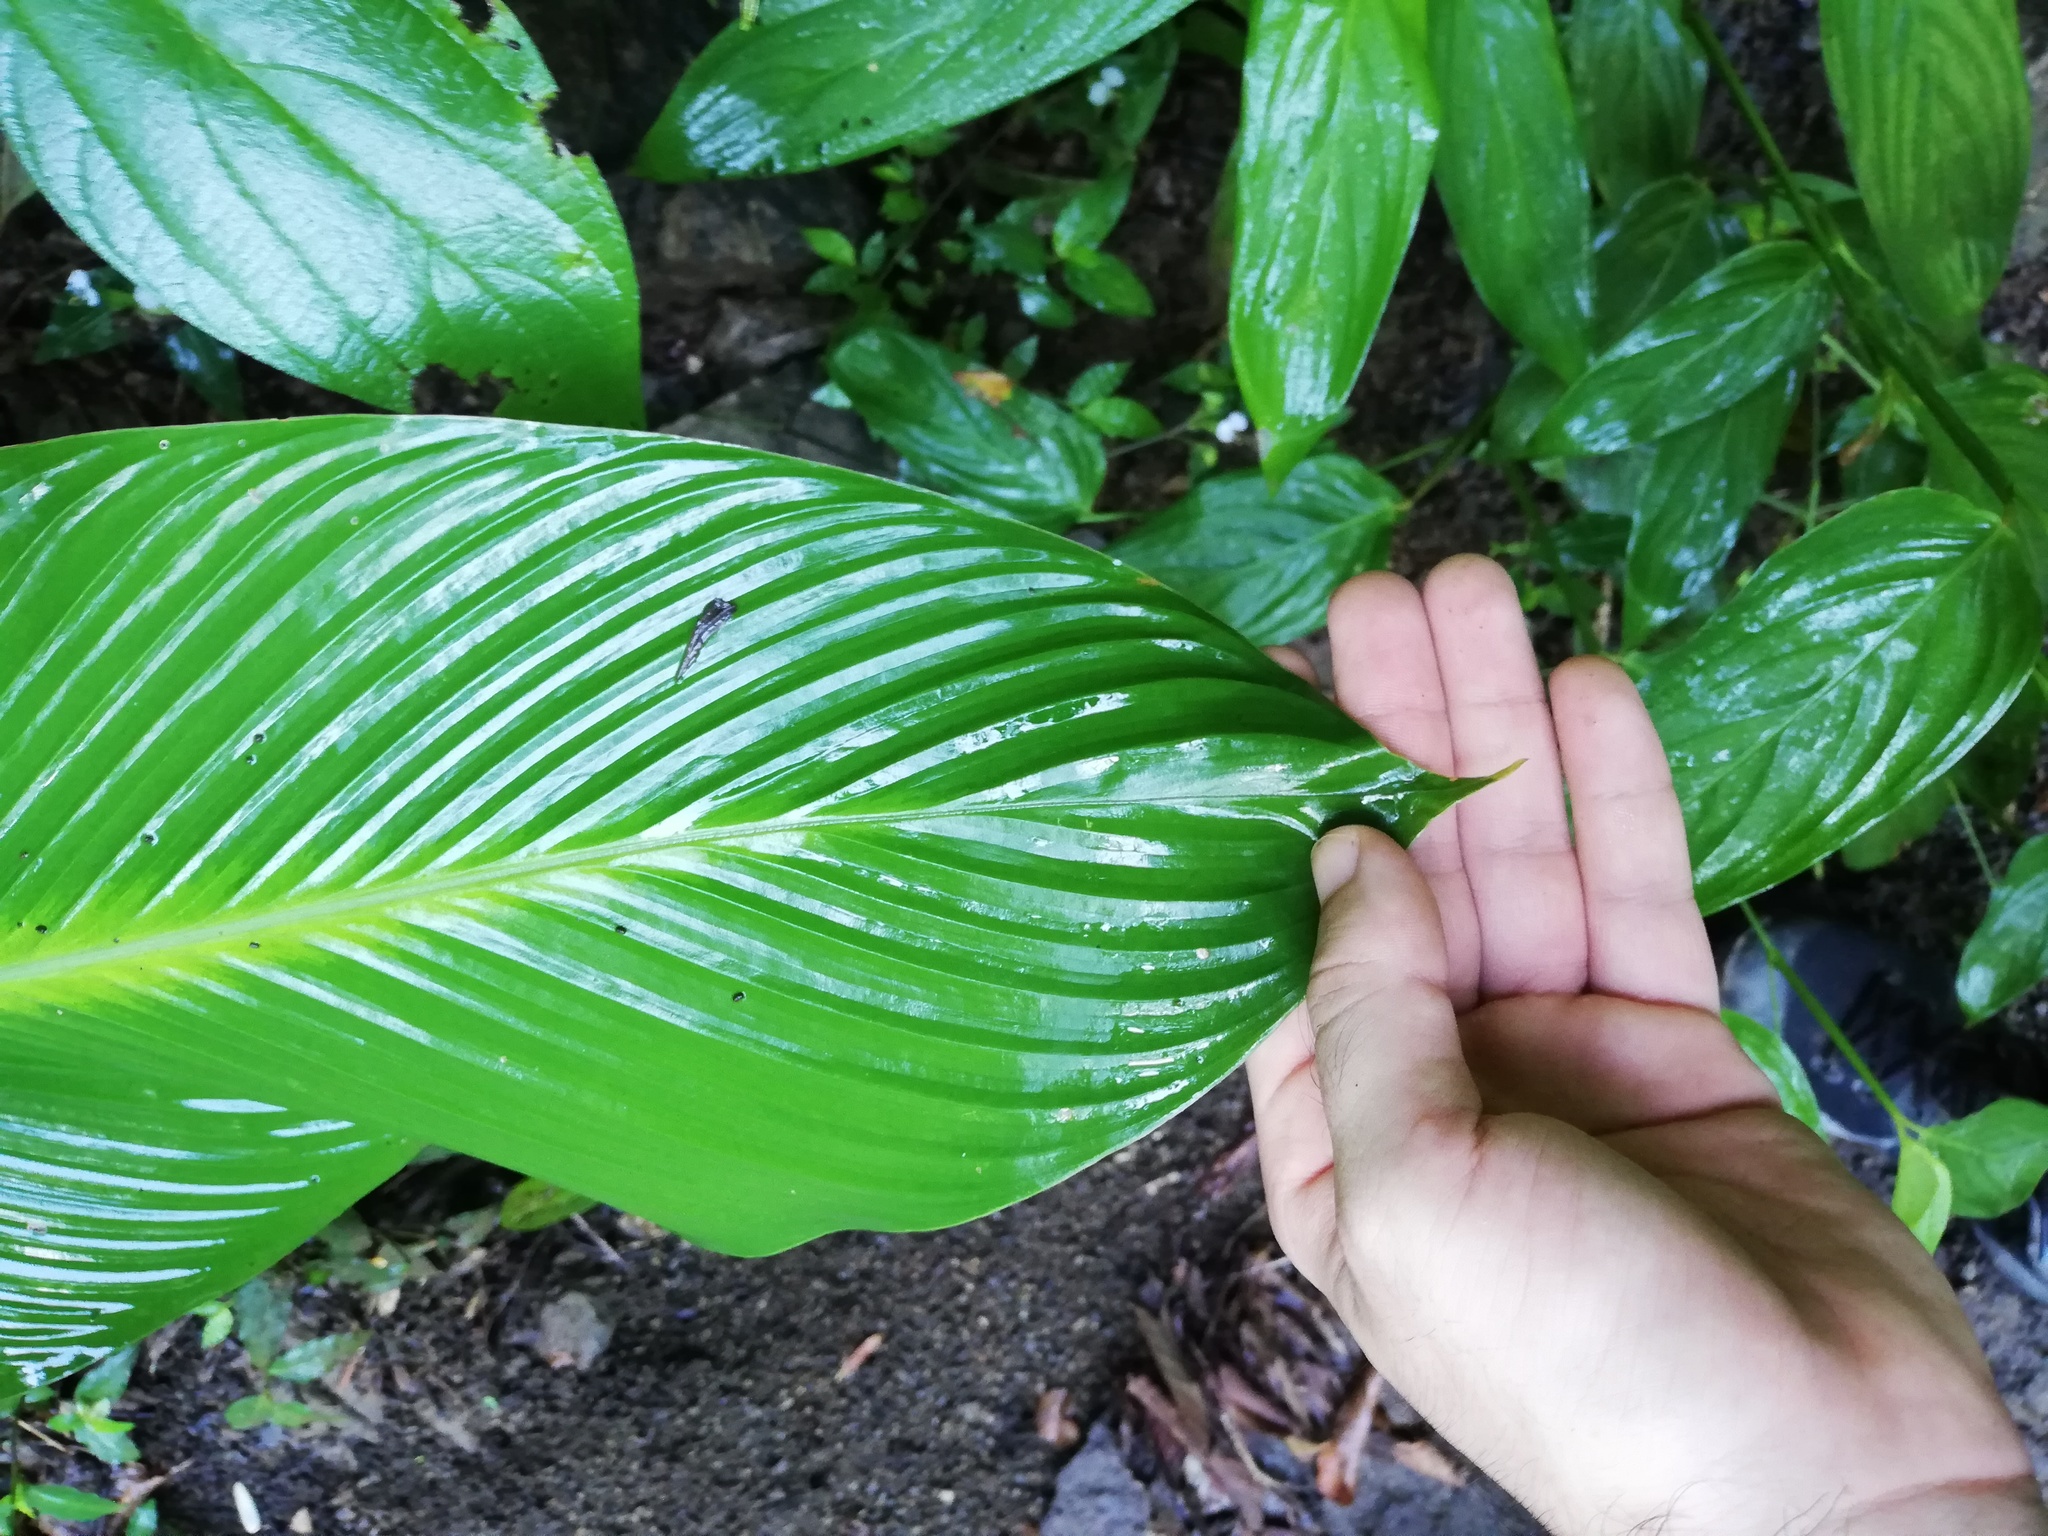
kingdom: Plantae
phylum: Tracheophyta
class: Liliopsida
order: Zingiberales
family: Marantaceae
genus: Goeppertia
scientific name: Goeppertia macrosepala
